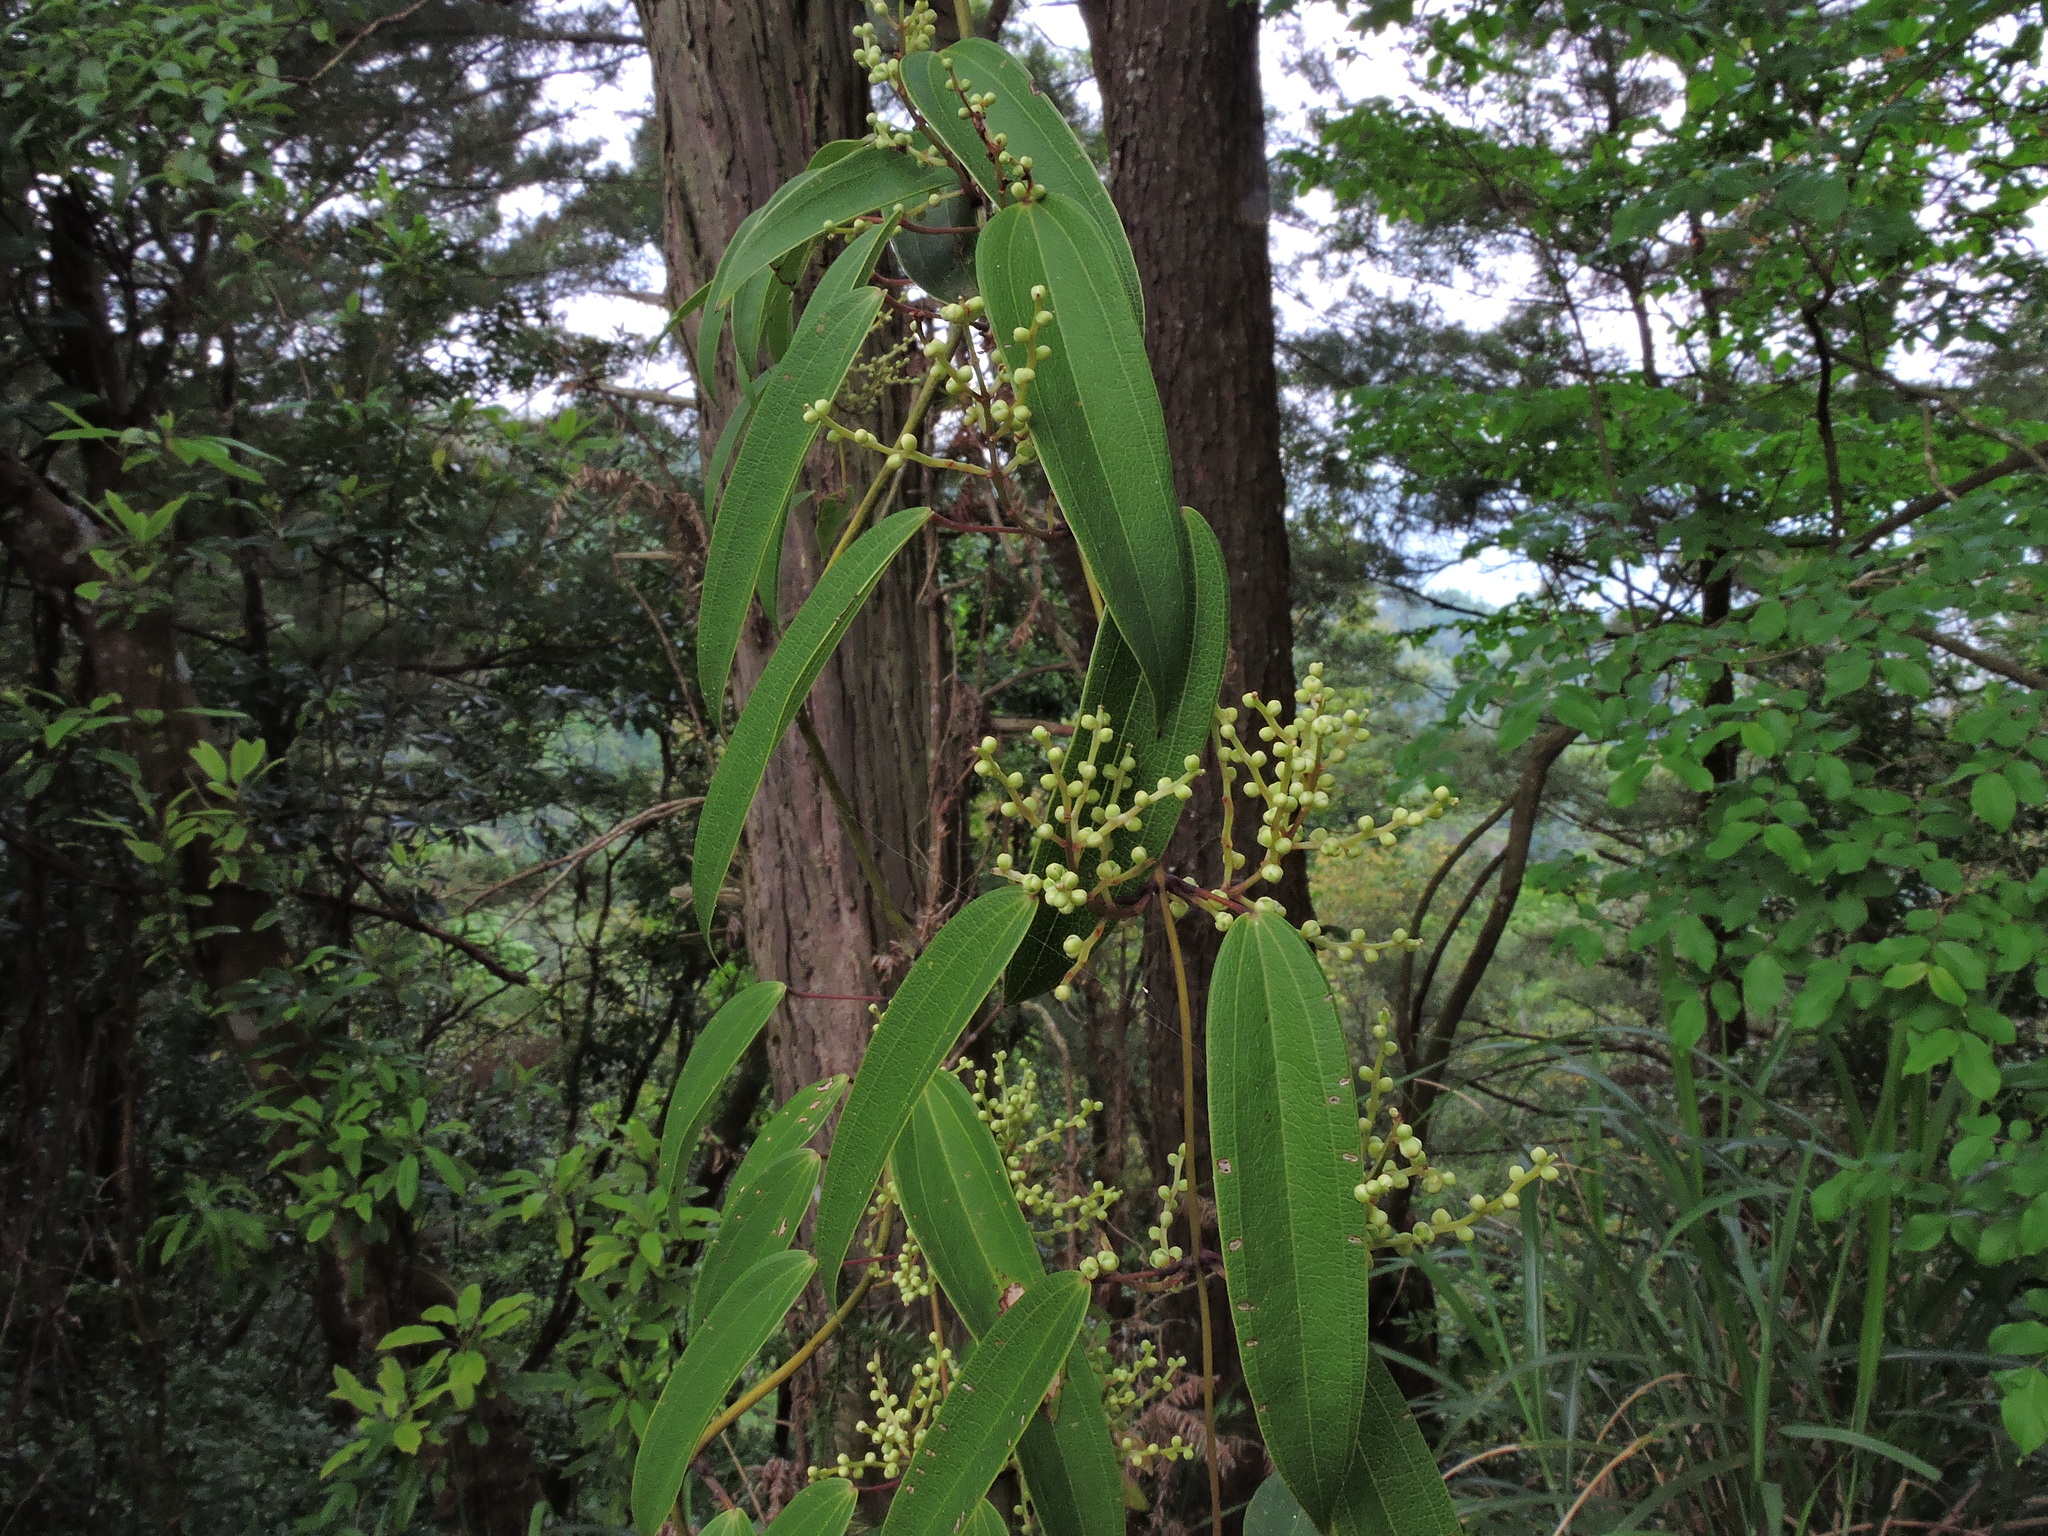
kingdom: Plantae
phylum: Tracheophyta
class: Liliopsida
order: Dioscoreales
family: Dioscoreaceae
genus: Dioscorea
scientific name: Dioscorea cirrhosa
